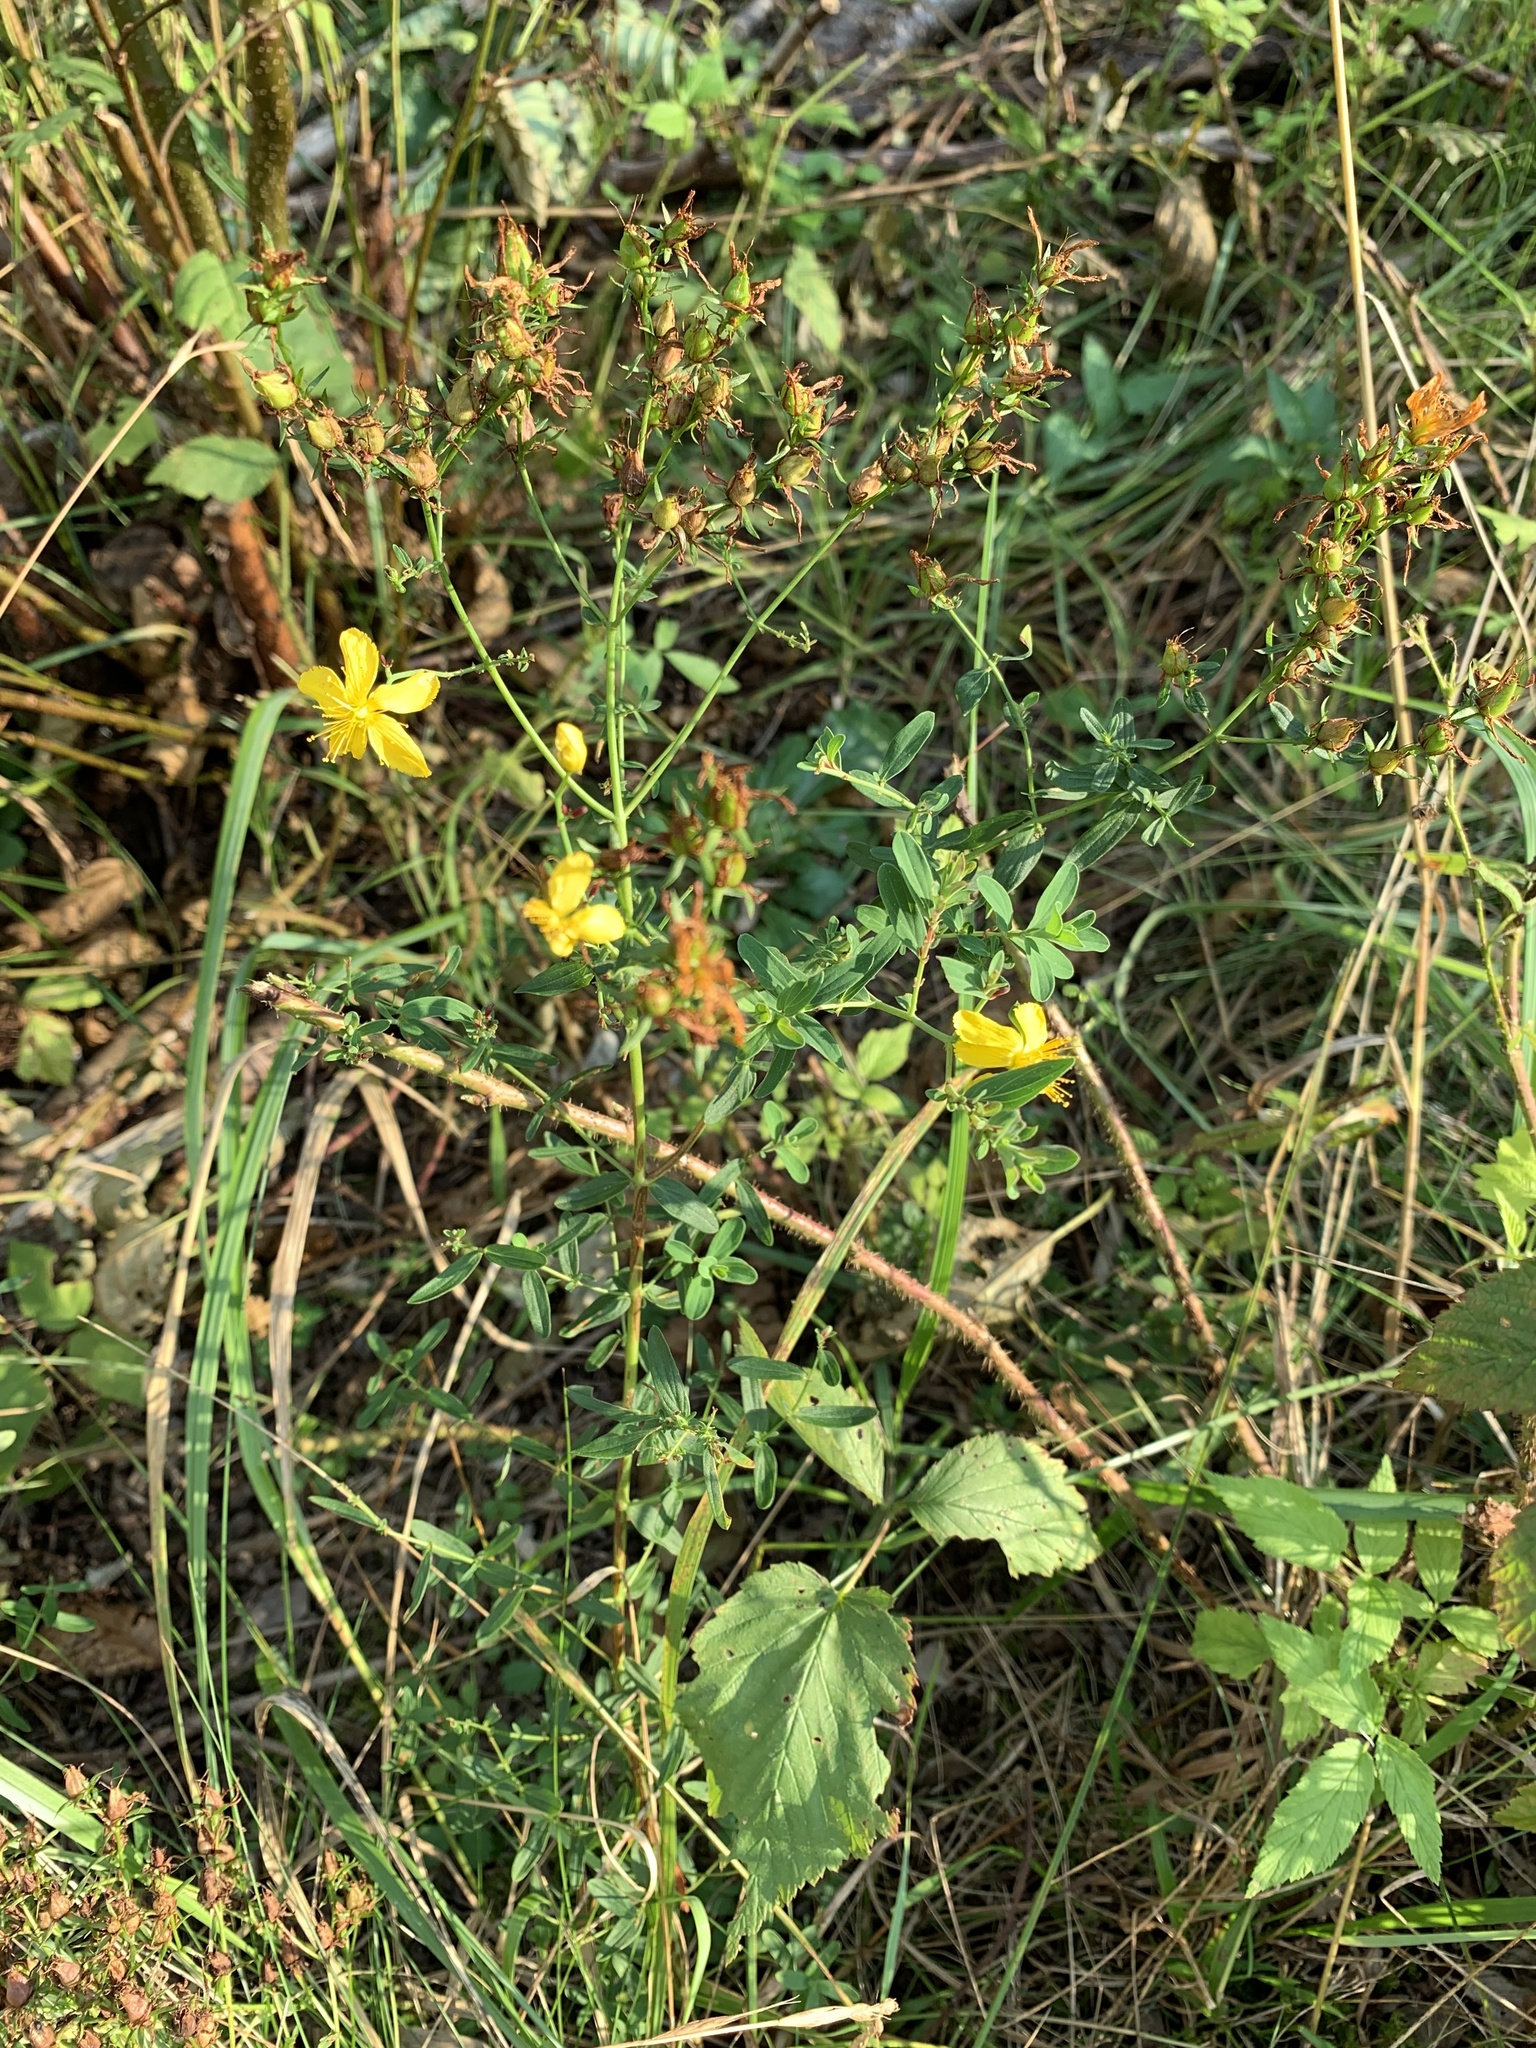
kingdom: Plantae
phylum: Tracheophyta
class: Magnoliopsida
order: Malpighiales
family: Hypericaceae
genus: Hypericum
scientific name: Hypericum perforatum
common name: Common st. johnswort
